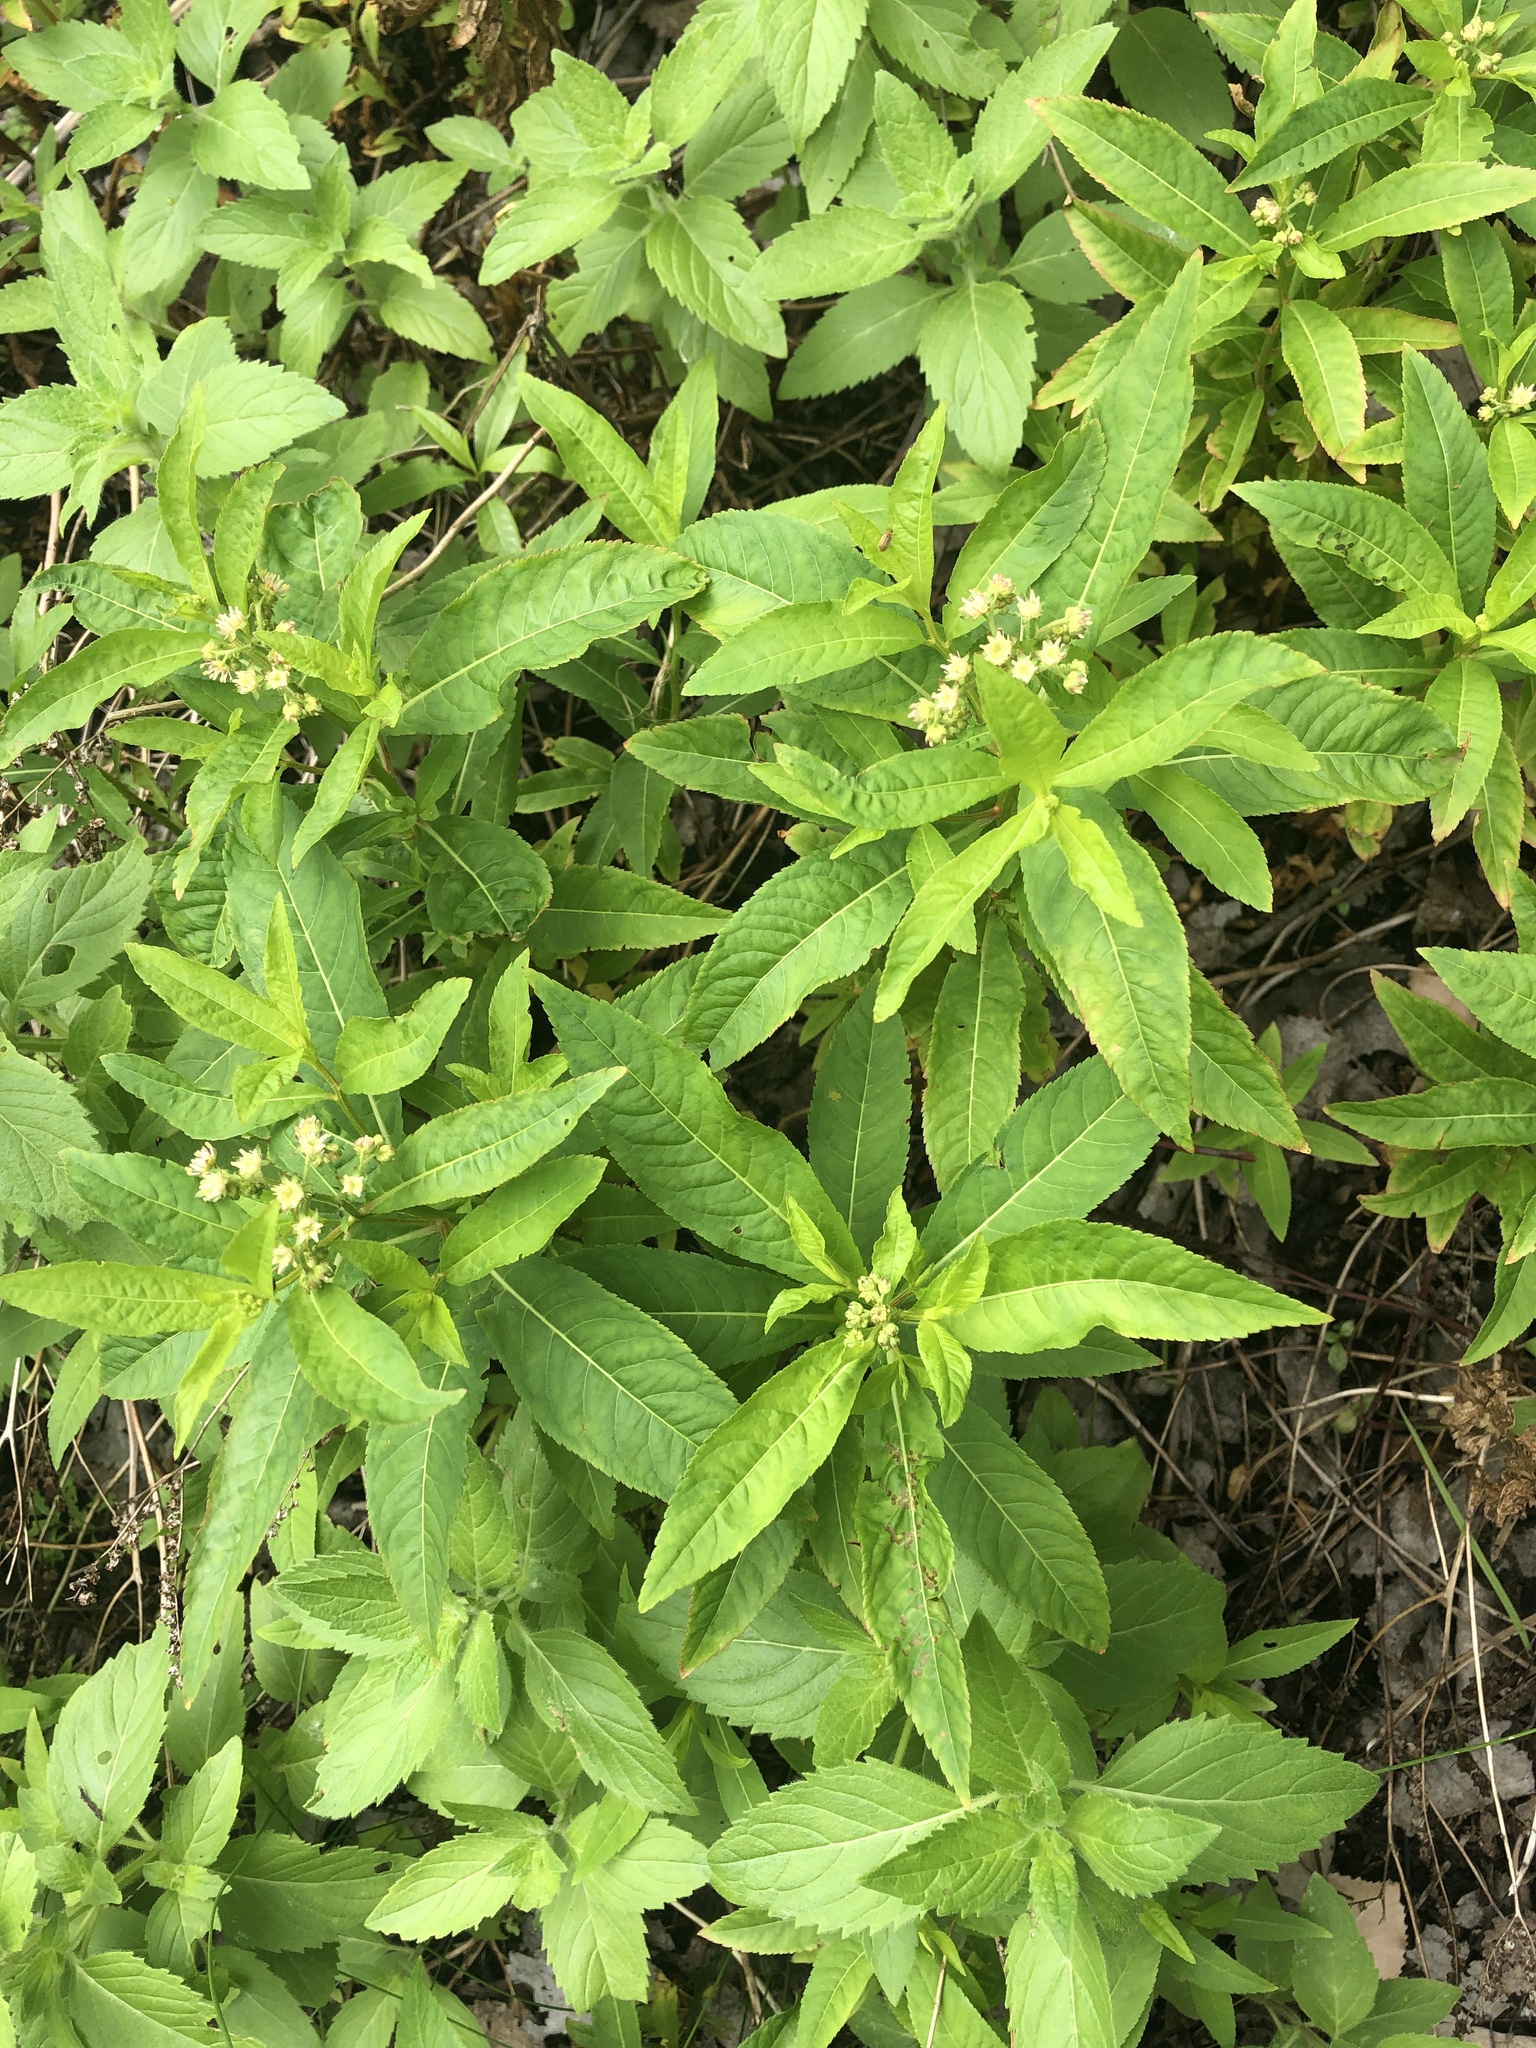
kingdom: Plantae
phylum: Tracheophyta
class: Magnoliopsida
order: Saxifragales
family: Penthoraceae
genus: Penthorum
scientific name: Penthorum sedoides
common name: Ditch stonecrop
